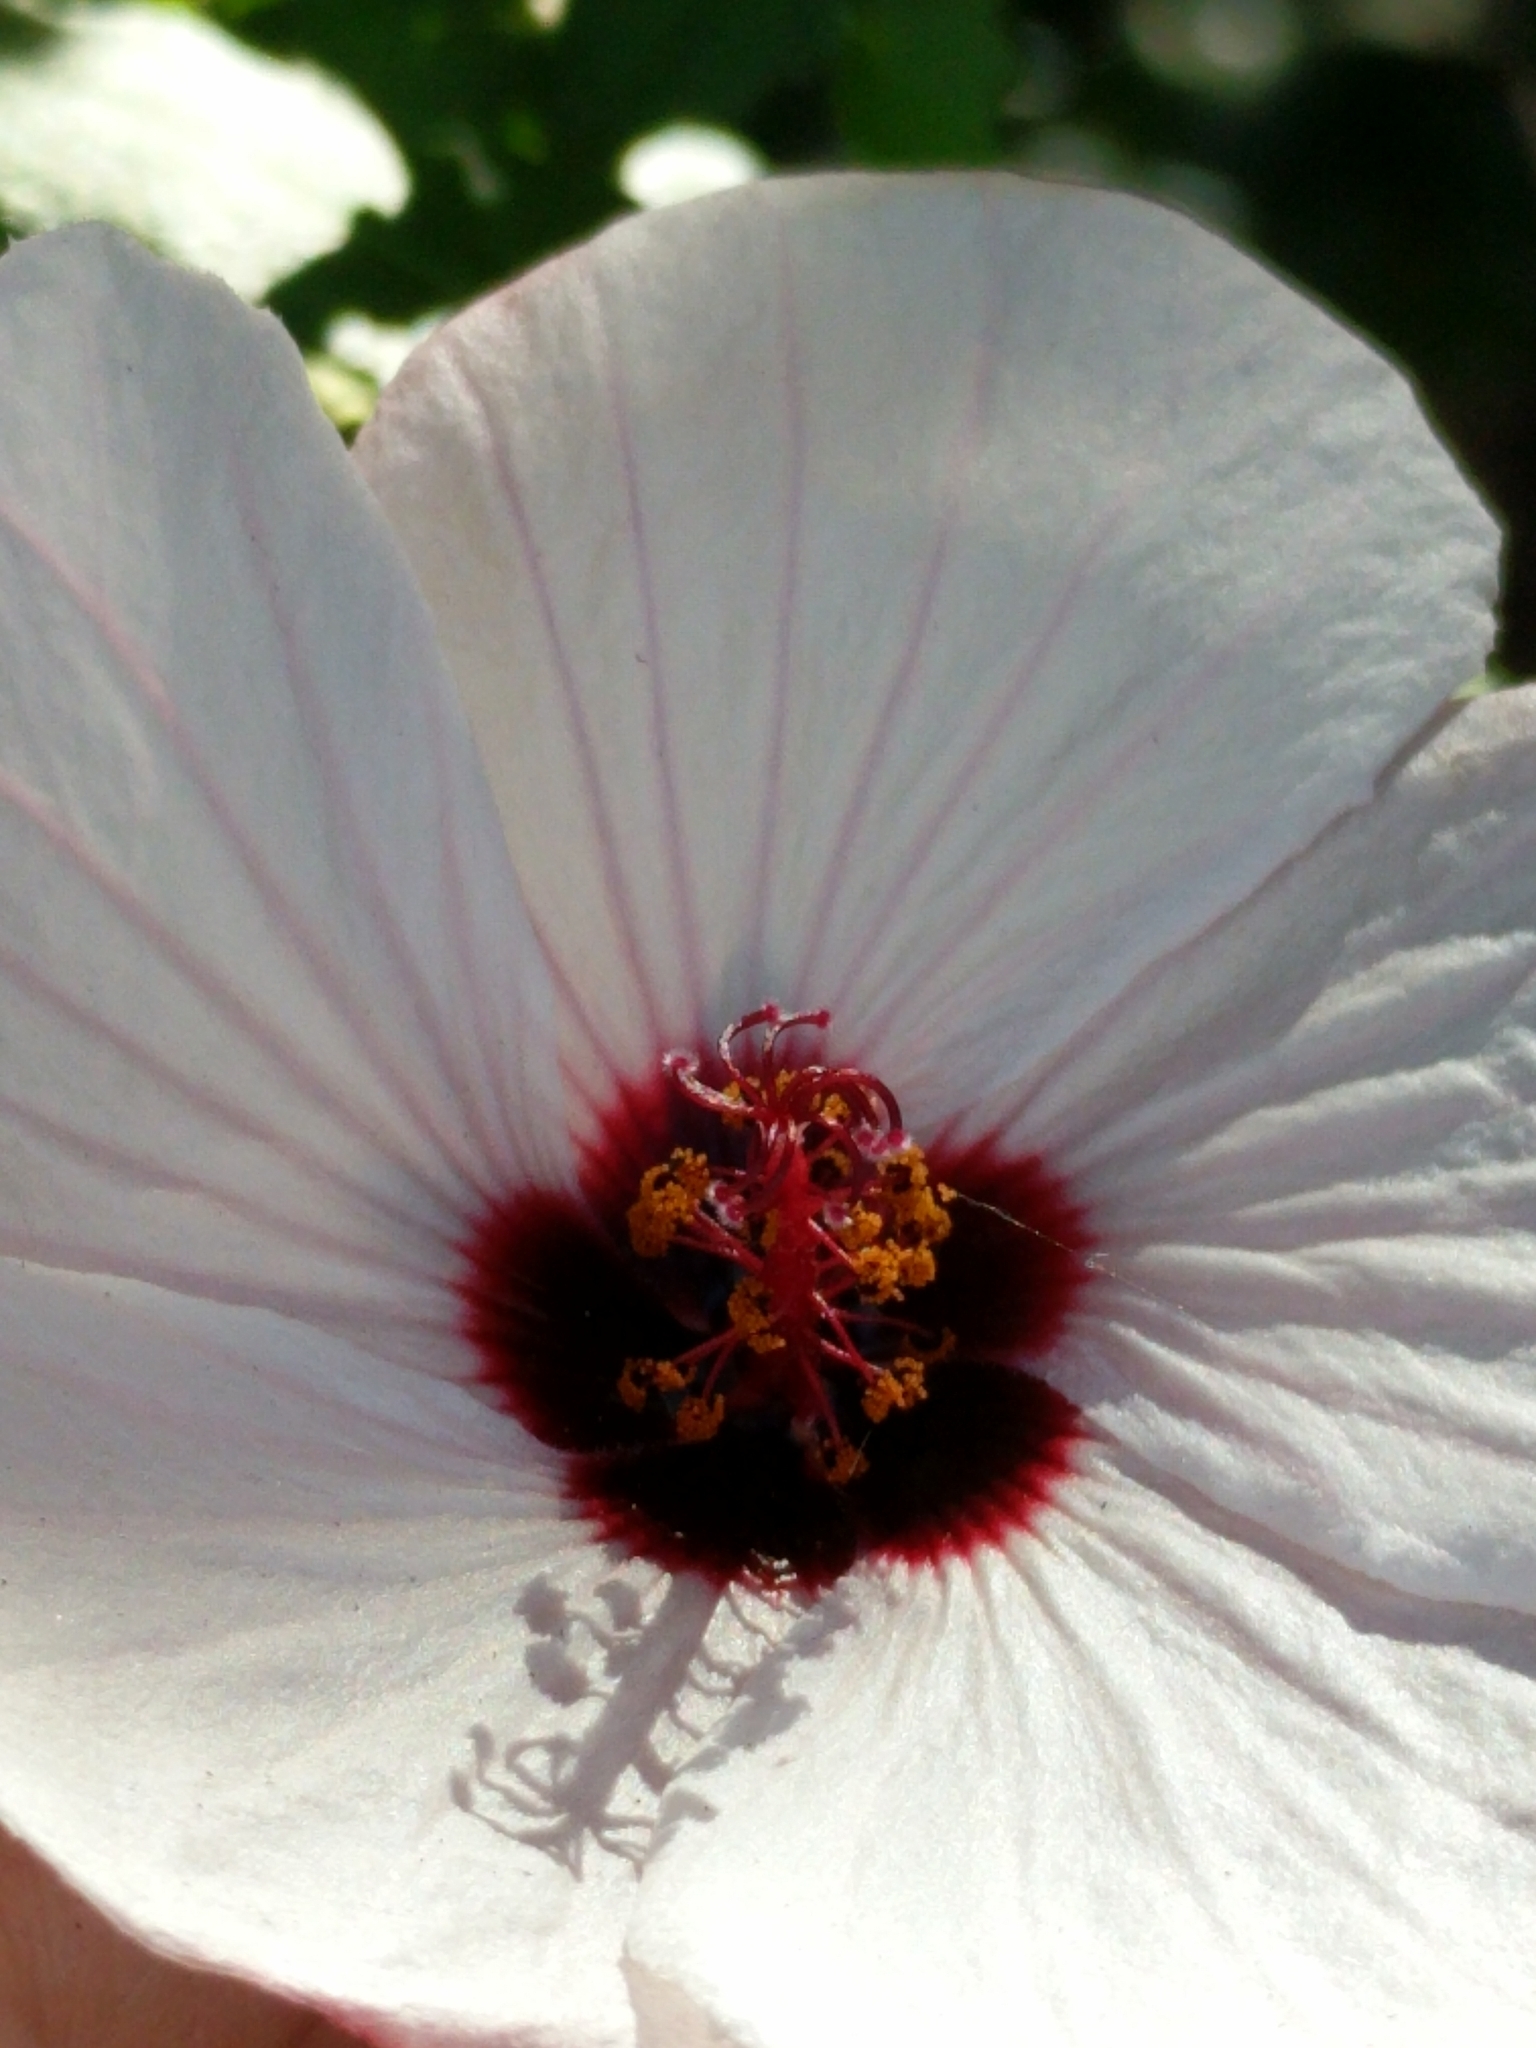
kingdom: Plantae
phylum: Tracheophyta
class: Magnoliopsida
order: Malvales
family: Malvaceae
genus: Pavonia
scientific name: Pavonia hastata
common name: Spearleaf swampmallow
